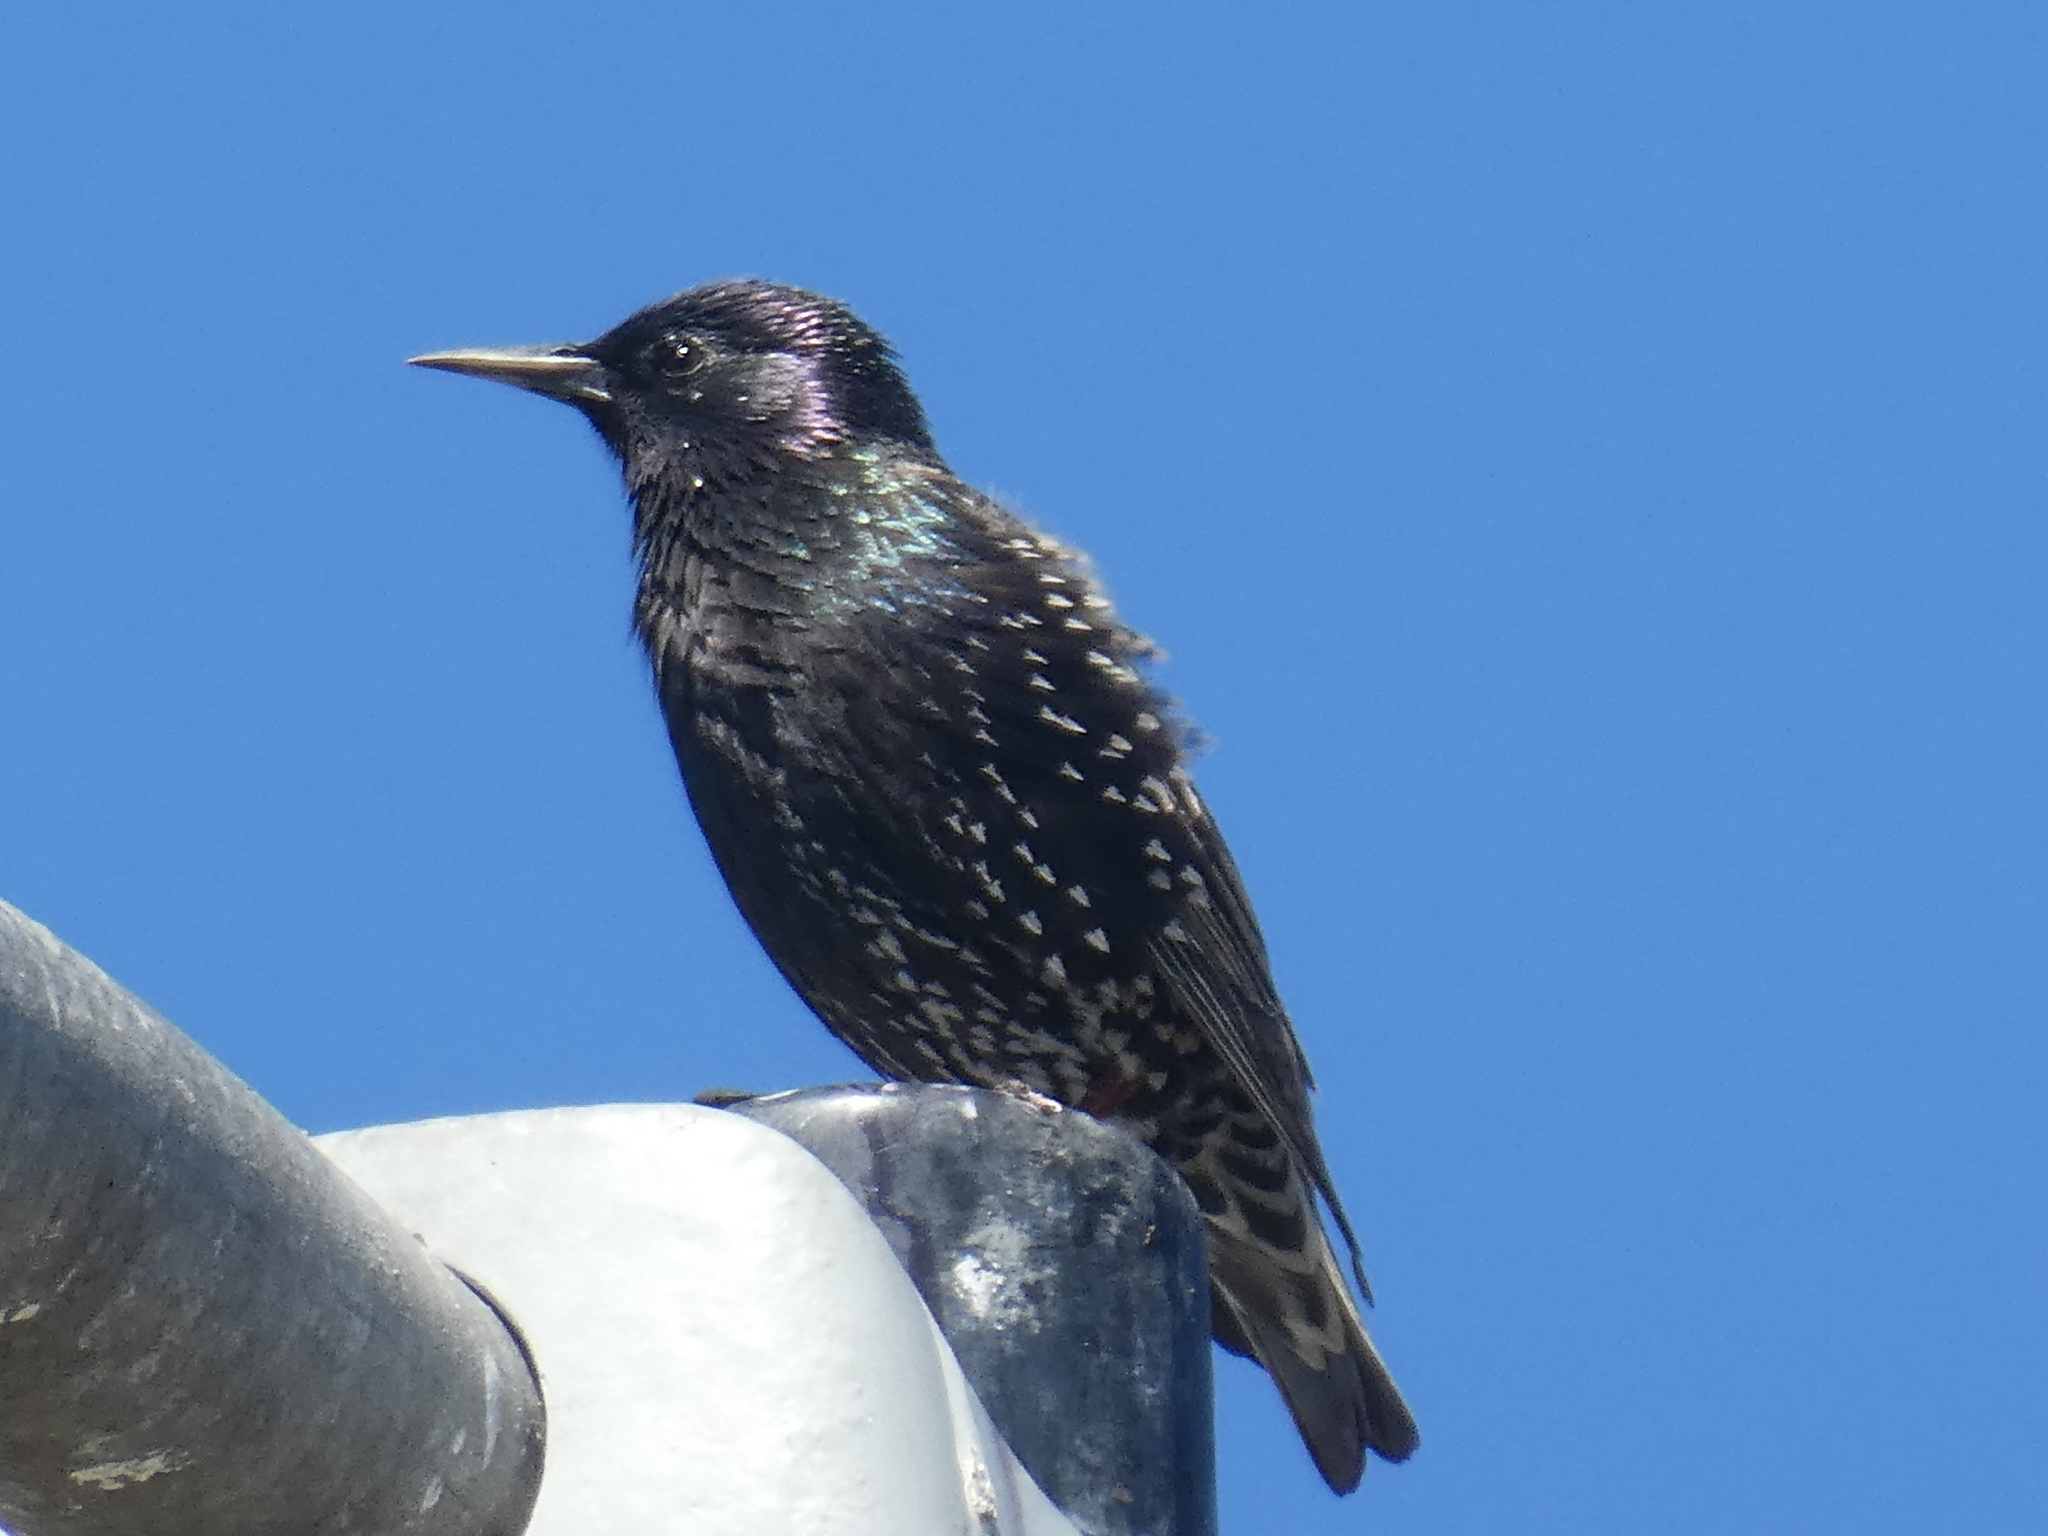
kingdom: Animalia
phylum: Chordata
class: Aves
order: Passeriformes
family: Sturnidae
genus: Sturnus
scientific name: Sturnus vulgaris
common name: Common starling
